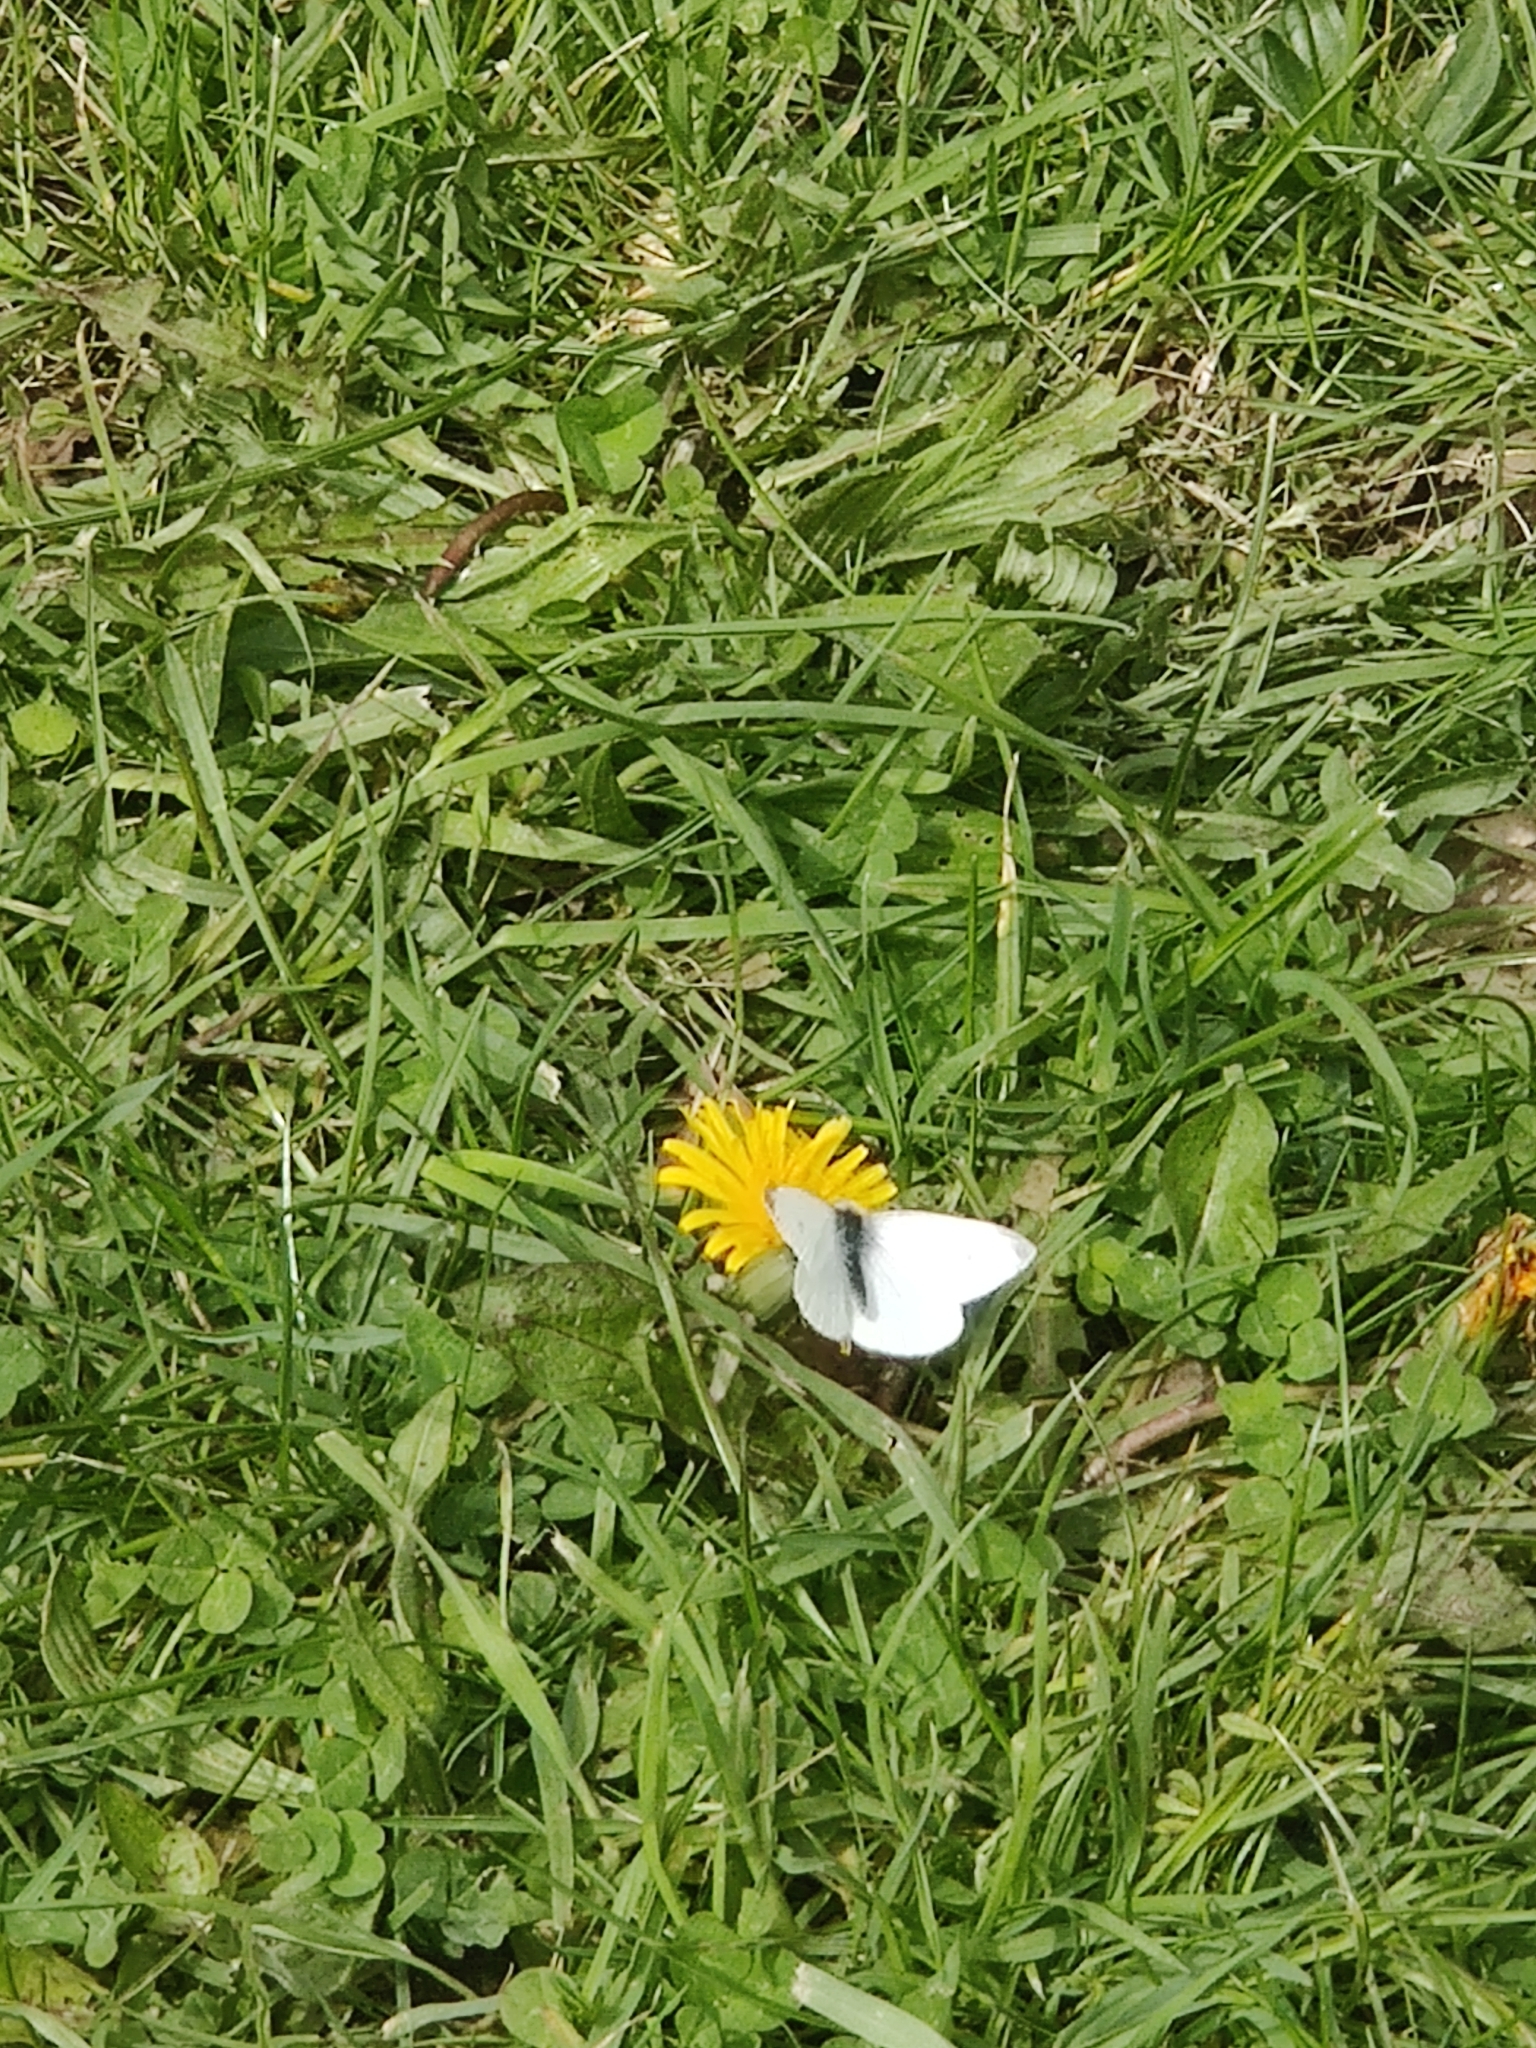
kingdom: Animalia
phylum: Arthropoda
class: Insecta
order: Lepidoptera
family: Pieridae
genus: Pieris
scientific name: Pieris rapae
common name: Small white
